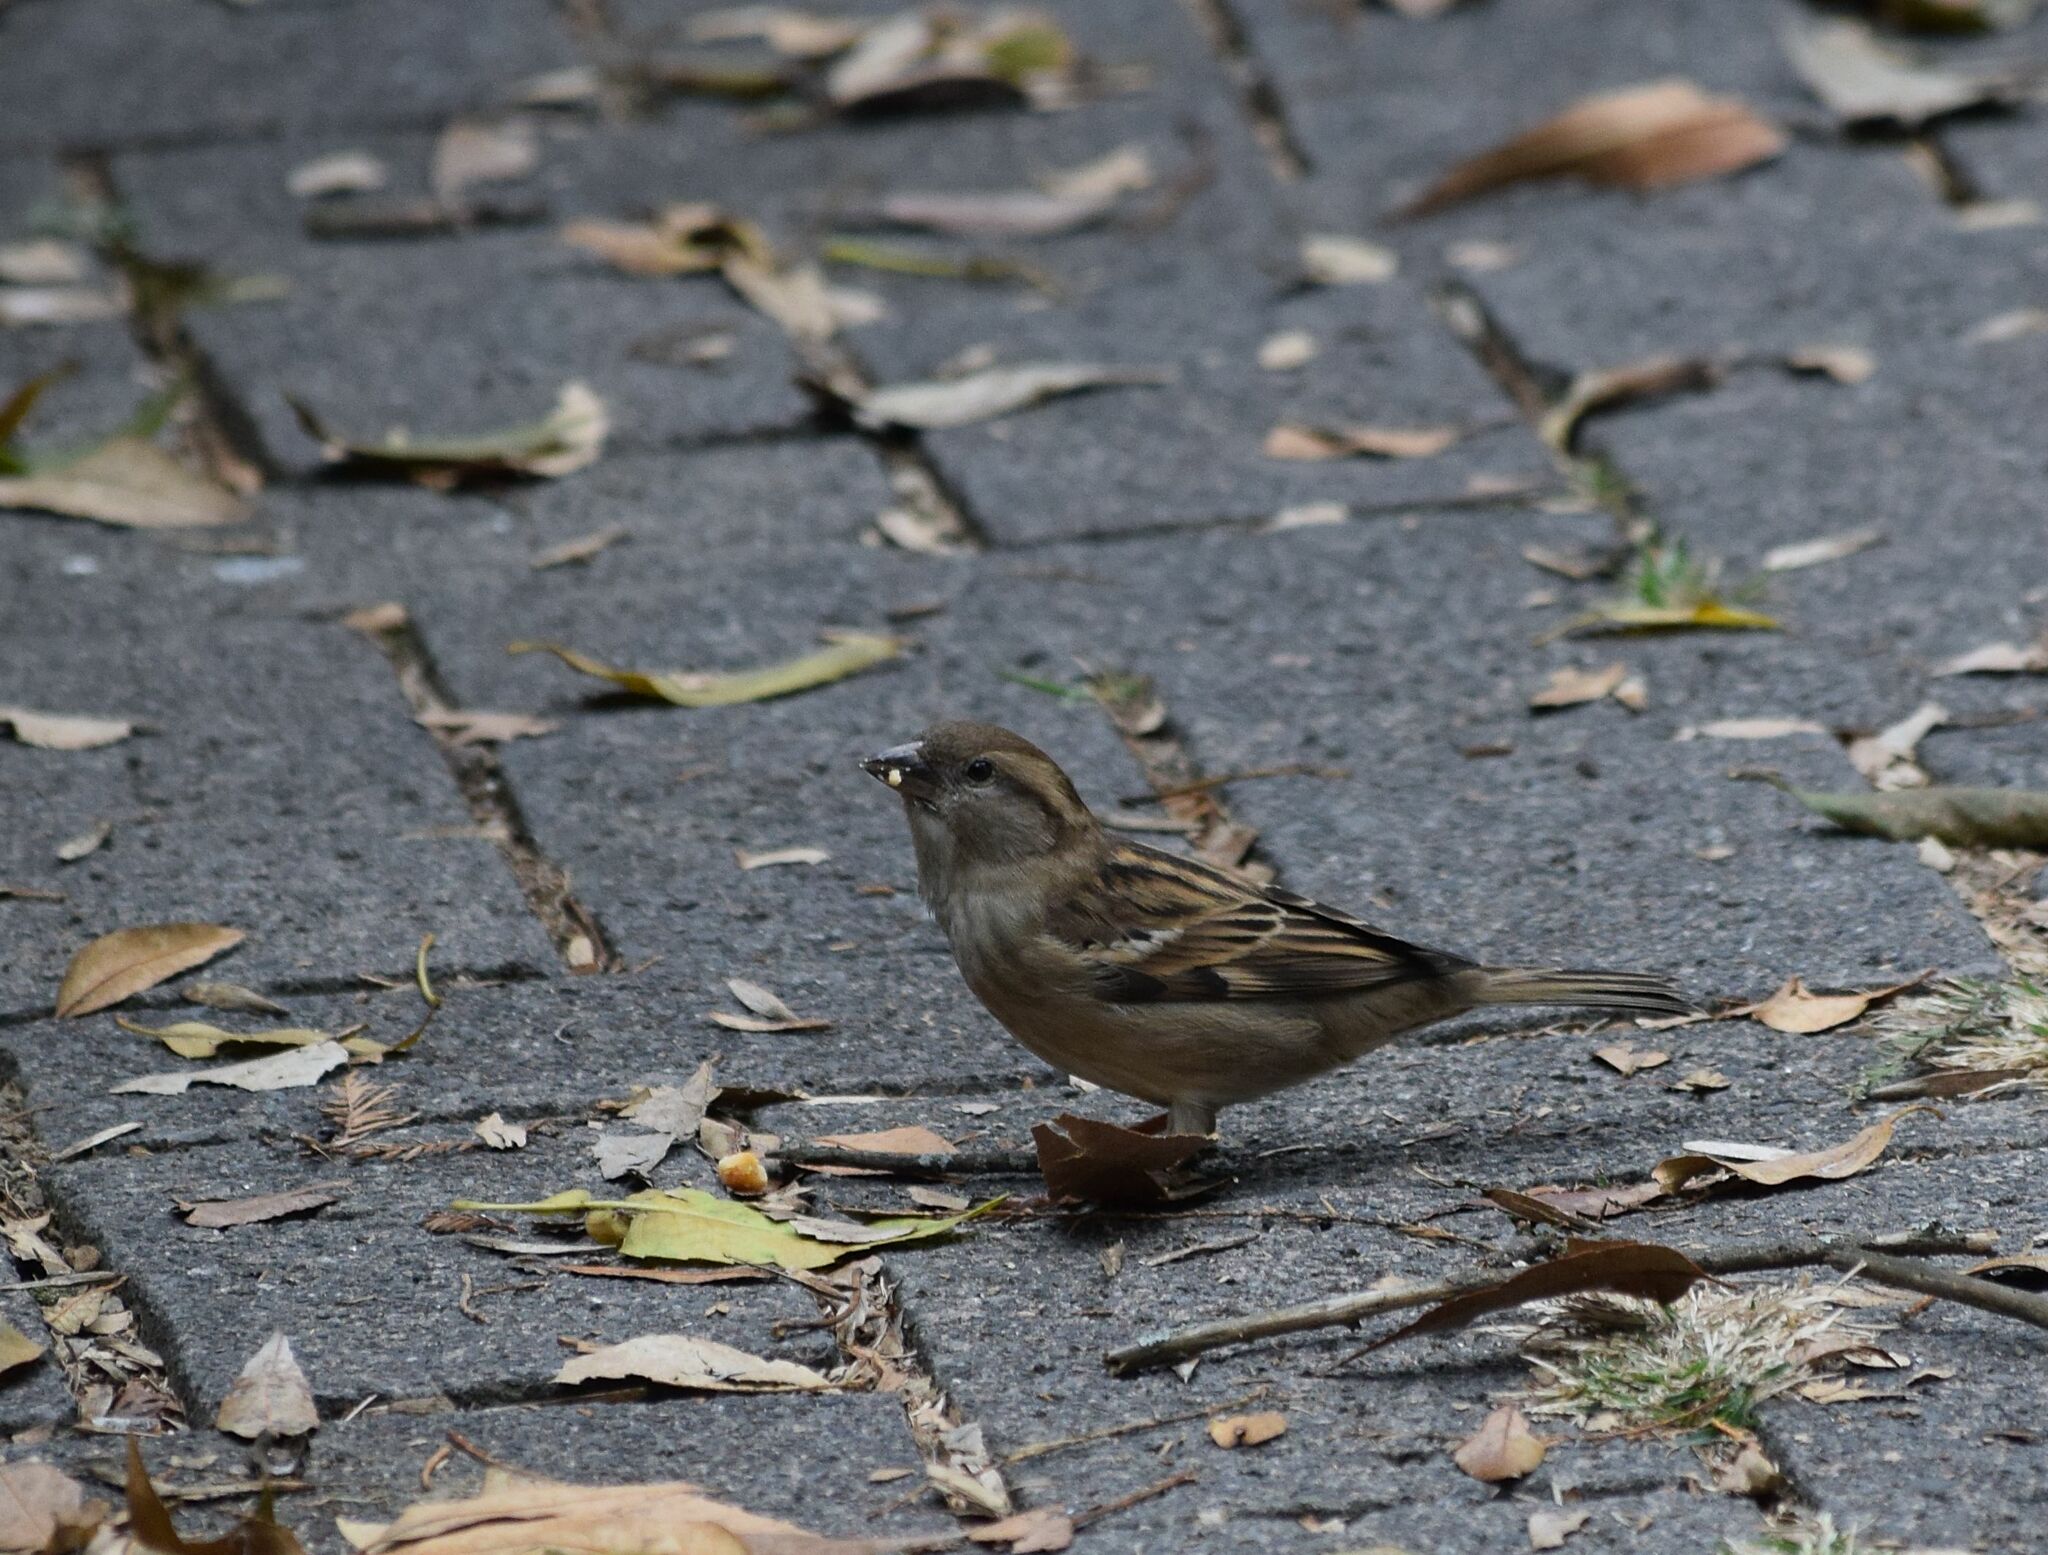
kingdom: Animalia
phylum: Chordata
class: Aves
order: Passeriformes
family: Passeridae
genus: Passer
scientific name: Passer domesticus
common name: House sparrow
